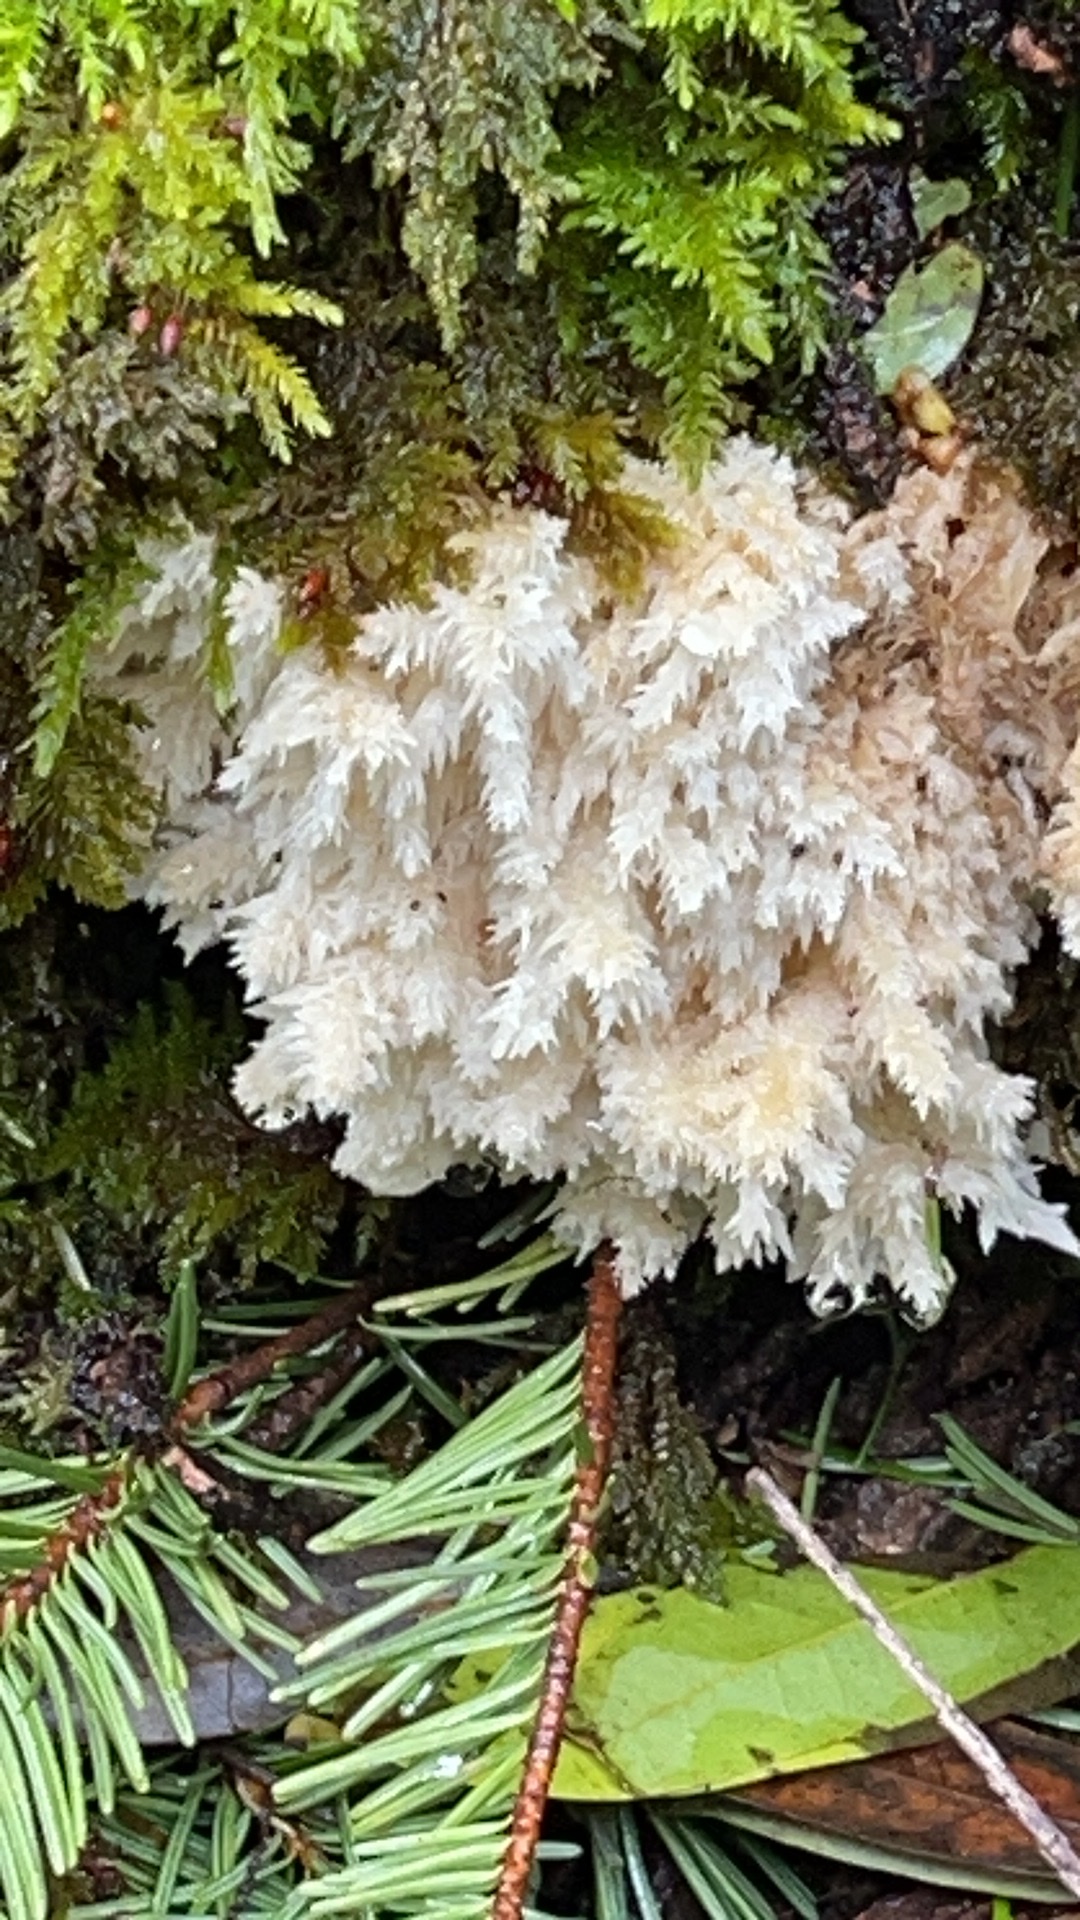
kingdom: Fungi
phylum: Basidiomycota
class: Agaricomycetes
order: Cantharellales
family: Hydnaceae
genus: Clavulina
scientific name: Clavulina coralloides
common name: Crested coral
